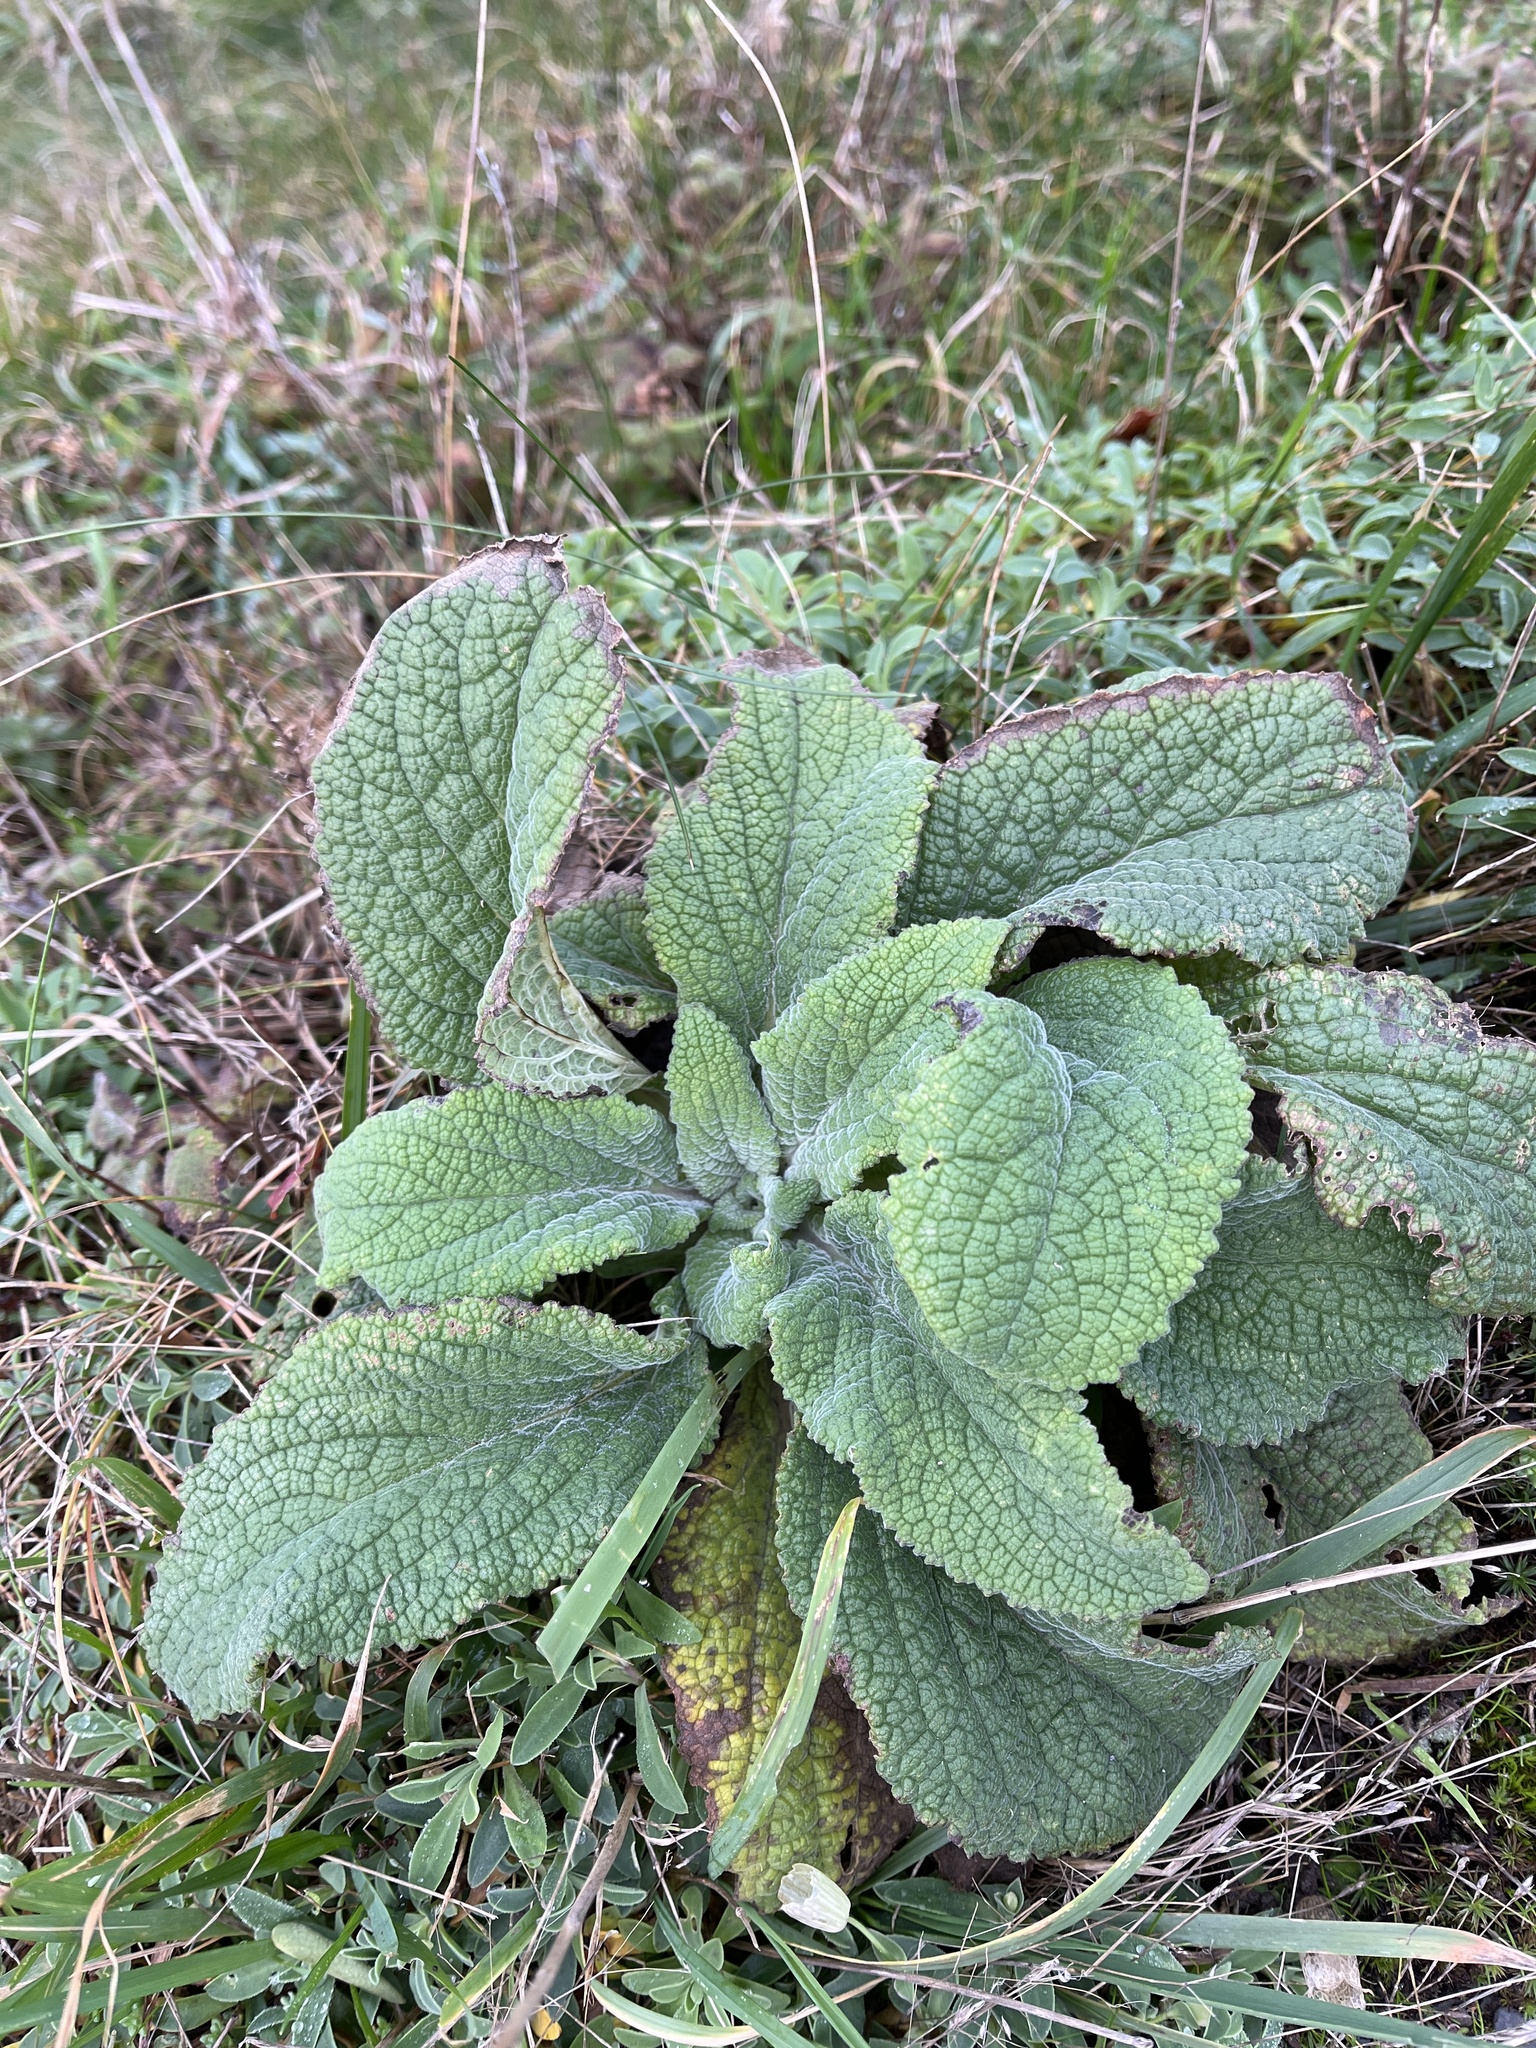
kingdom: Plantae
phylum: Tracheophyta
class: Magnoliopsida
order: Lamiales
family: Plantaginaceae
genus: Digitalis
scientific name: Digitalis purpurea
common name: Foxglove
